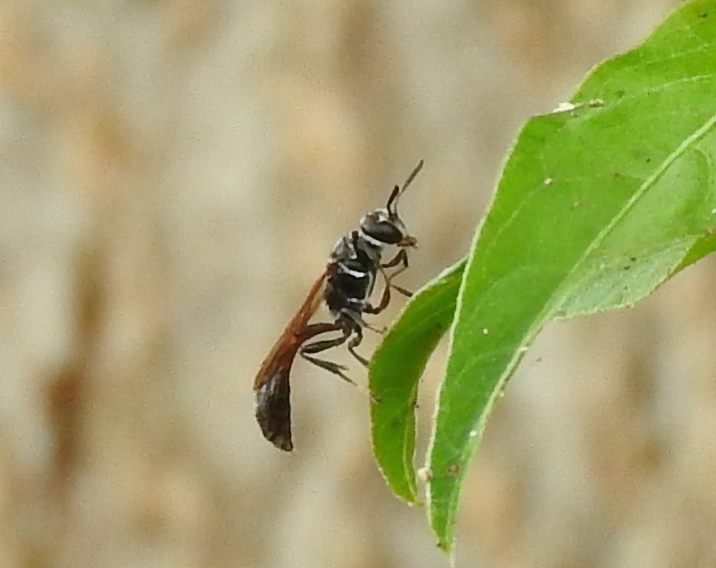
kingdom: Animalia
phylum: Arthropoda
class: Insecta
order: Hymenoptera
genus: Trypargilum
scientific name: Trypargilum
